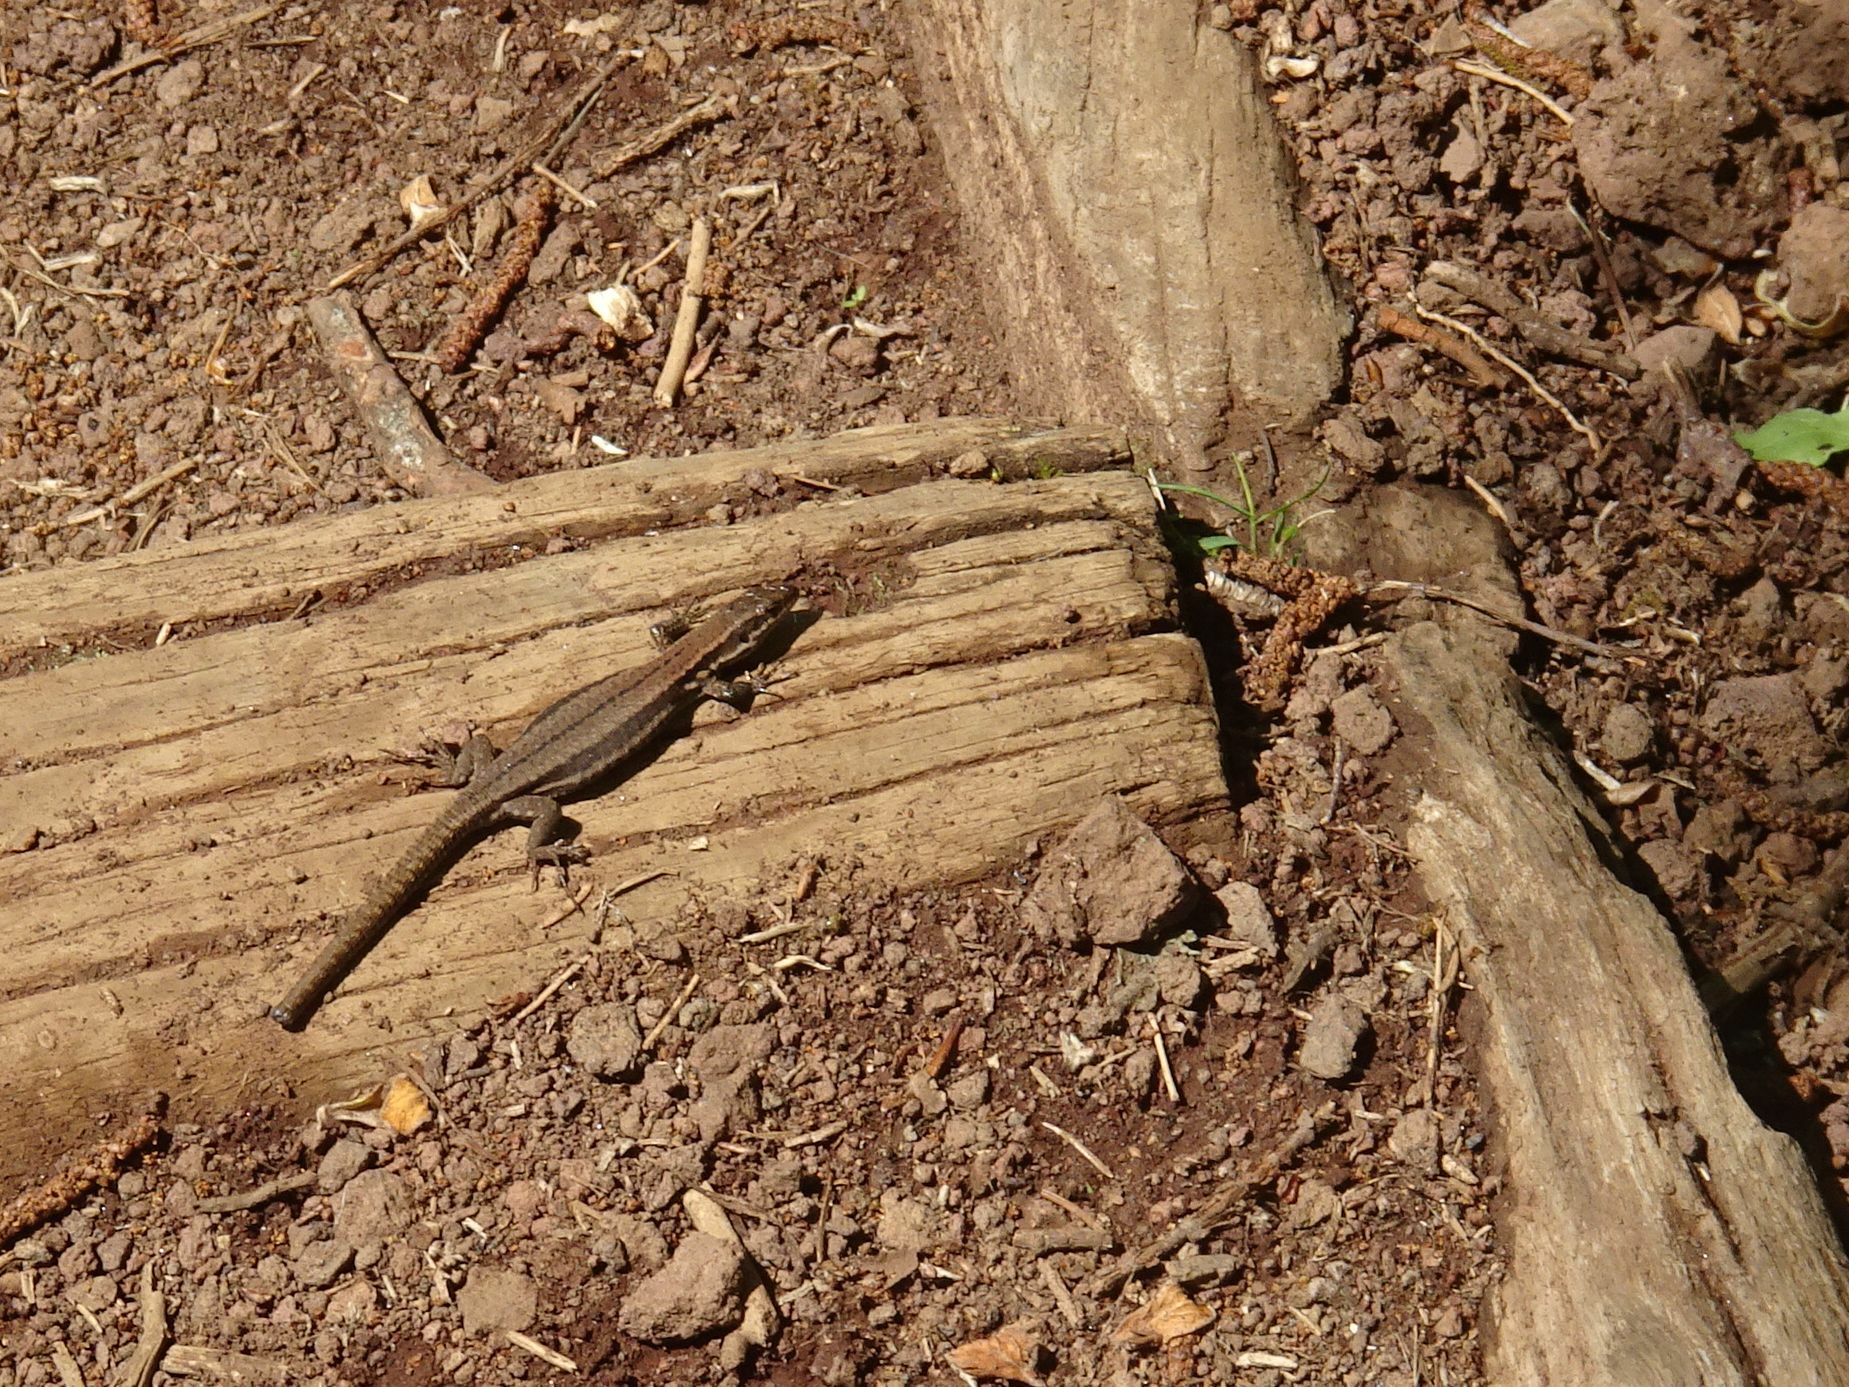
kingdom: Animalia
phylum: Chordata
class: Squamata
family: Lacertidae
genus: Podarcis
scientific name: Podarcis muralis
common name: Common wall lizard
